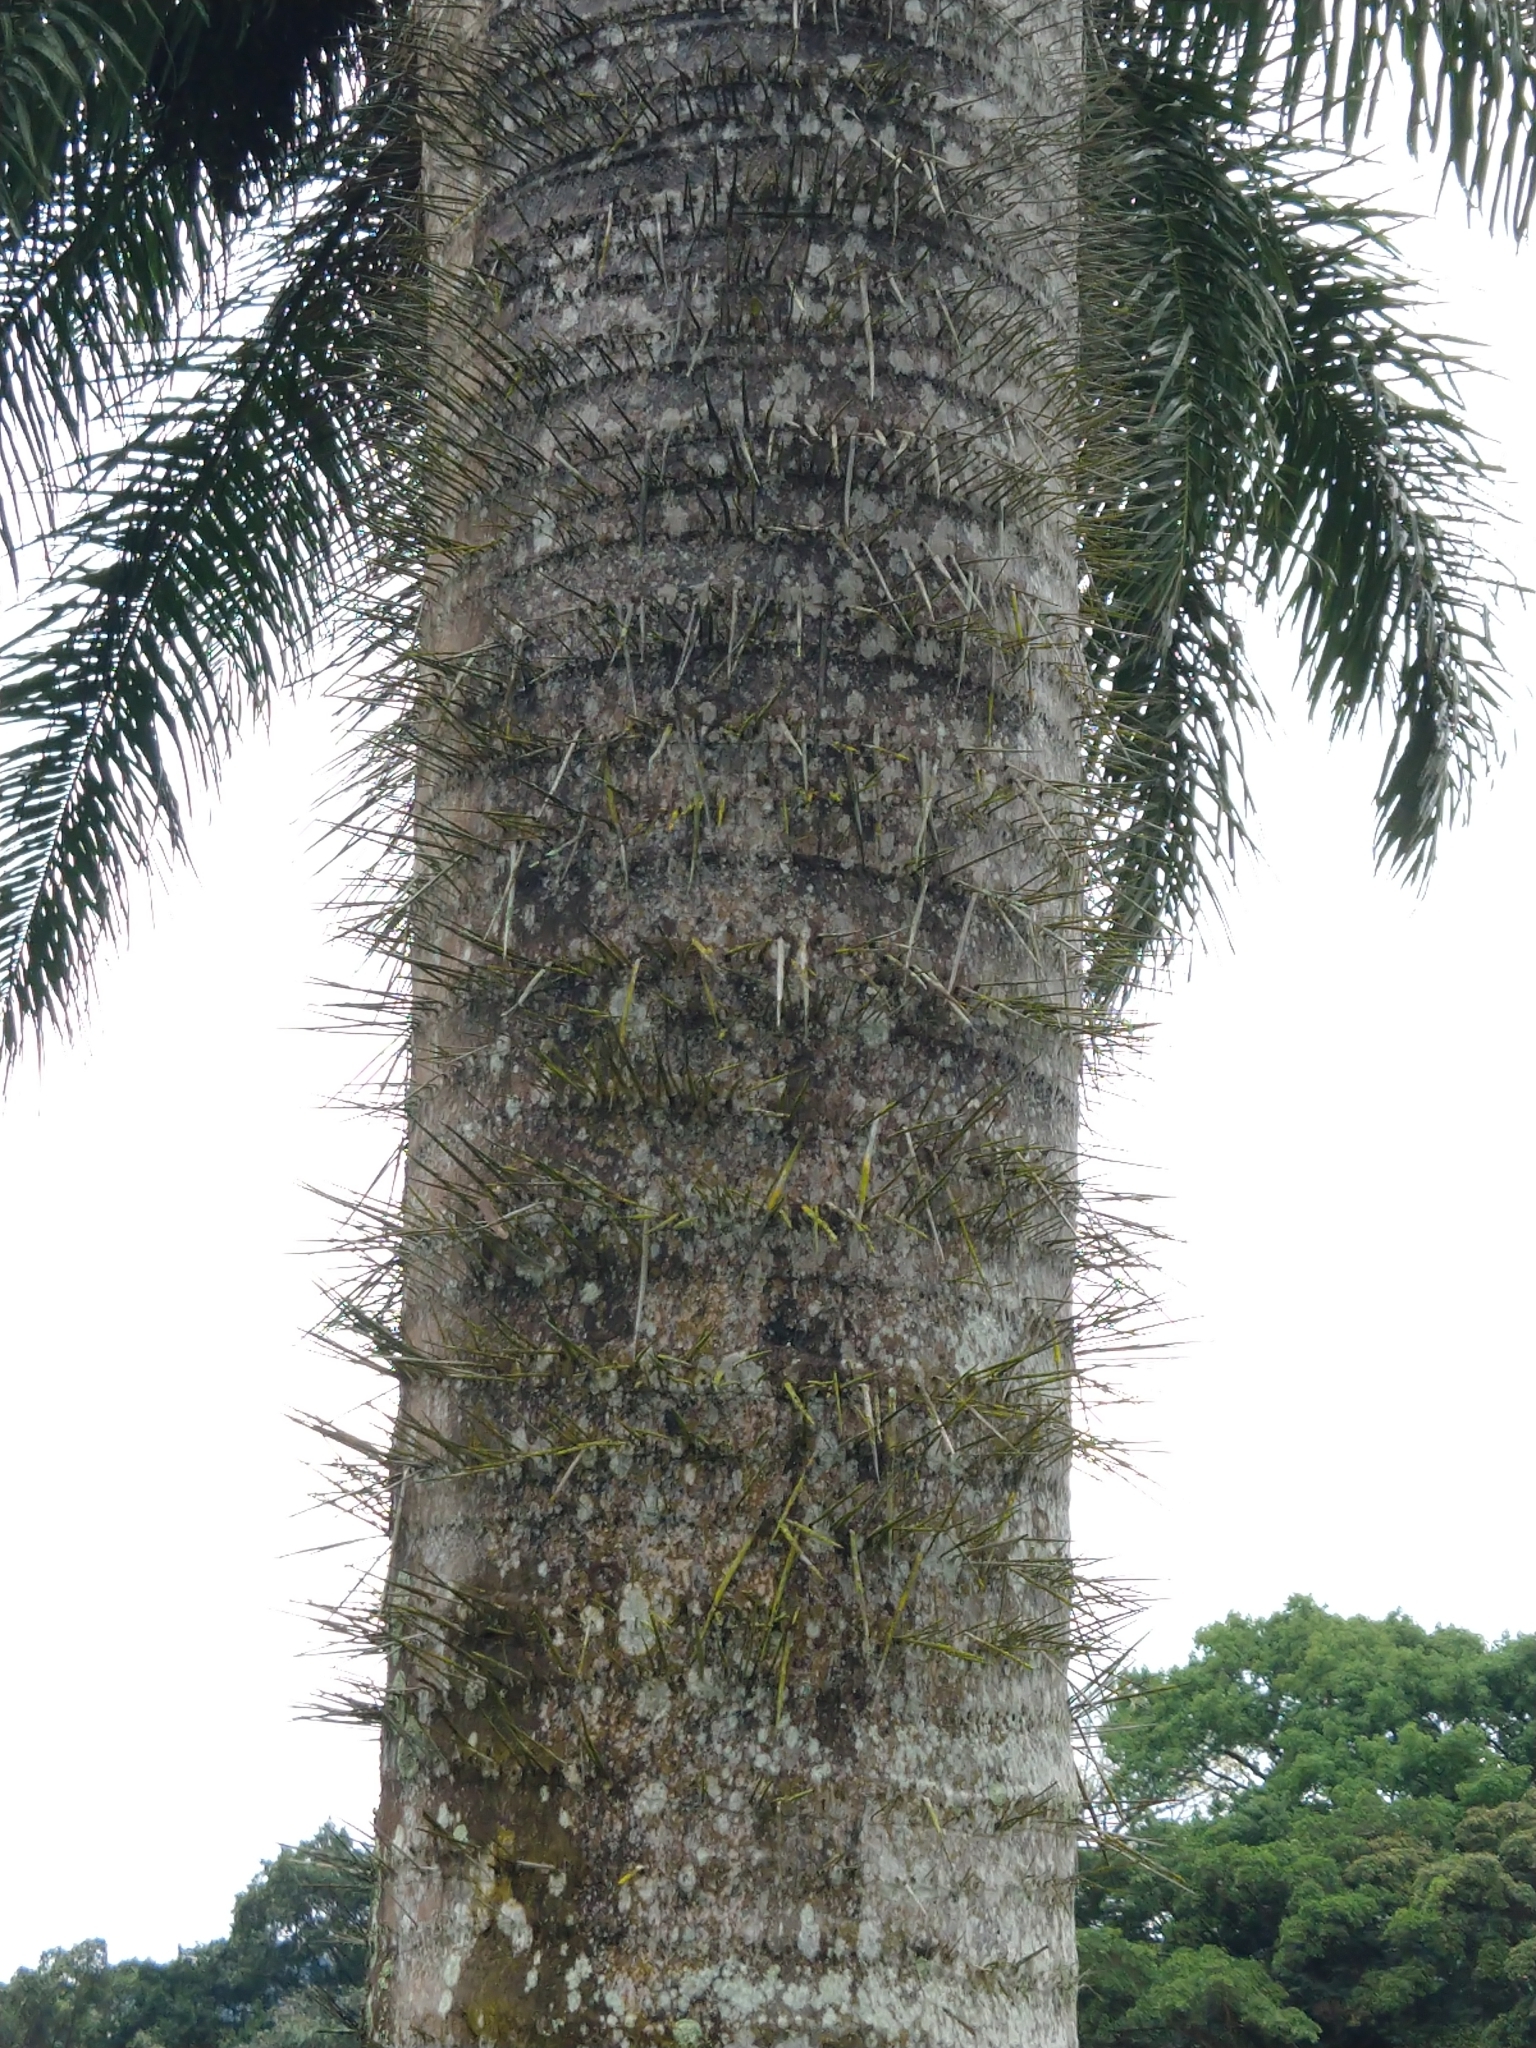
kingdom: Plantae
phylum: Tracheophyta
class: Liliopsida
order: Arecales
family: Arecaceae
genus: Roystonea
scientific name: Roystonea regia
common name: Florida royal palm
